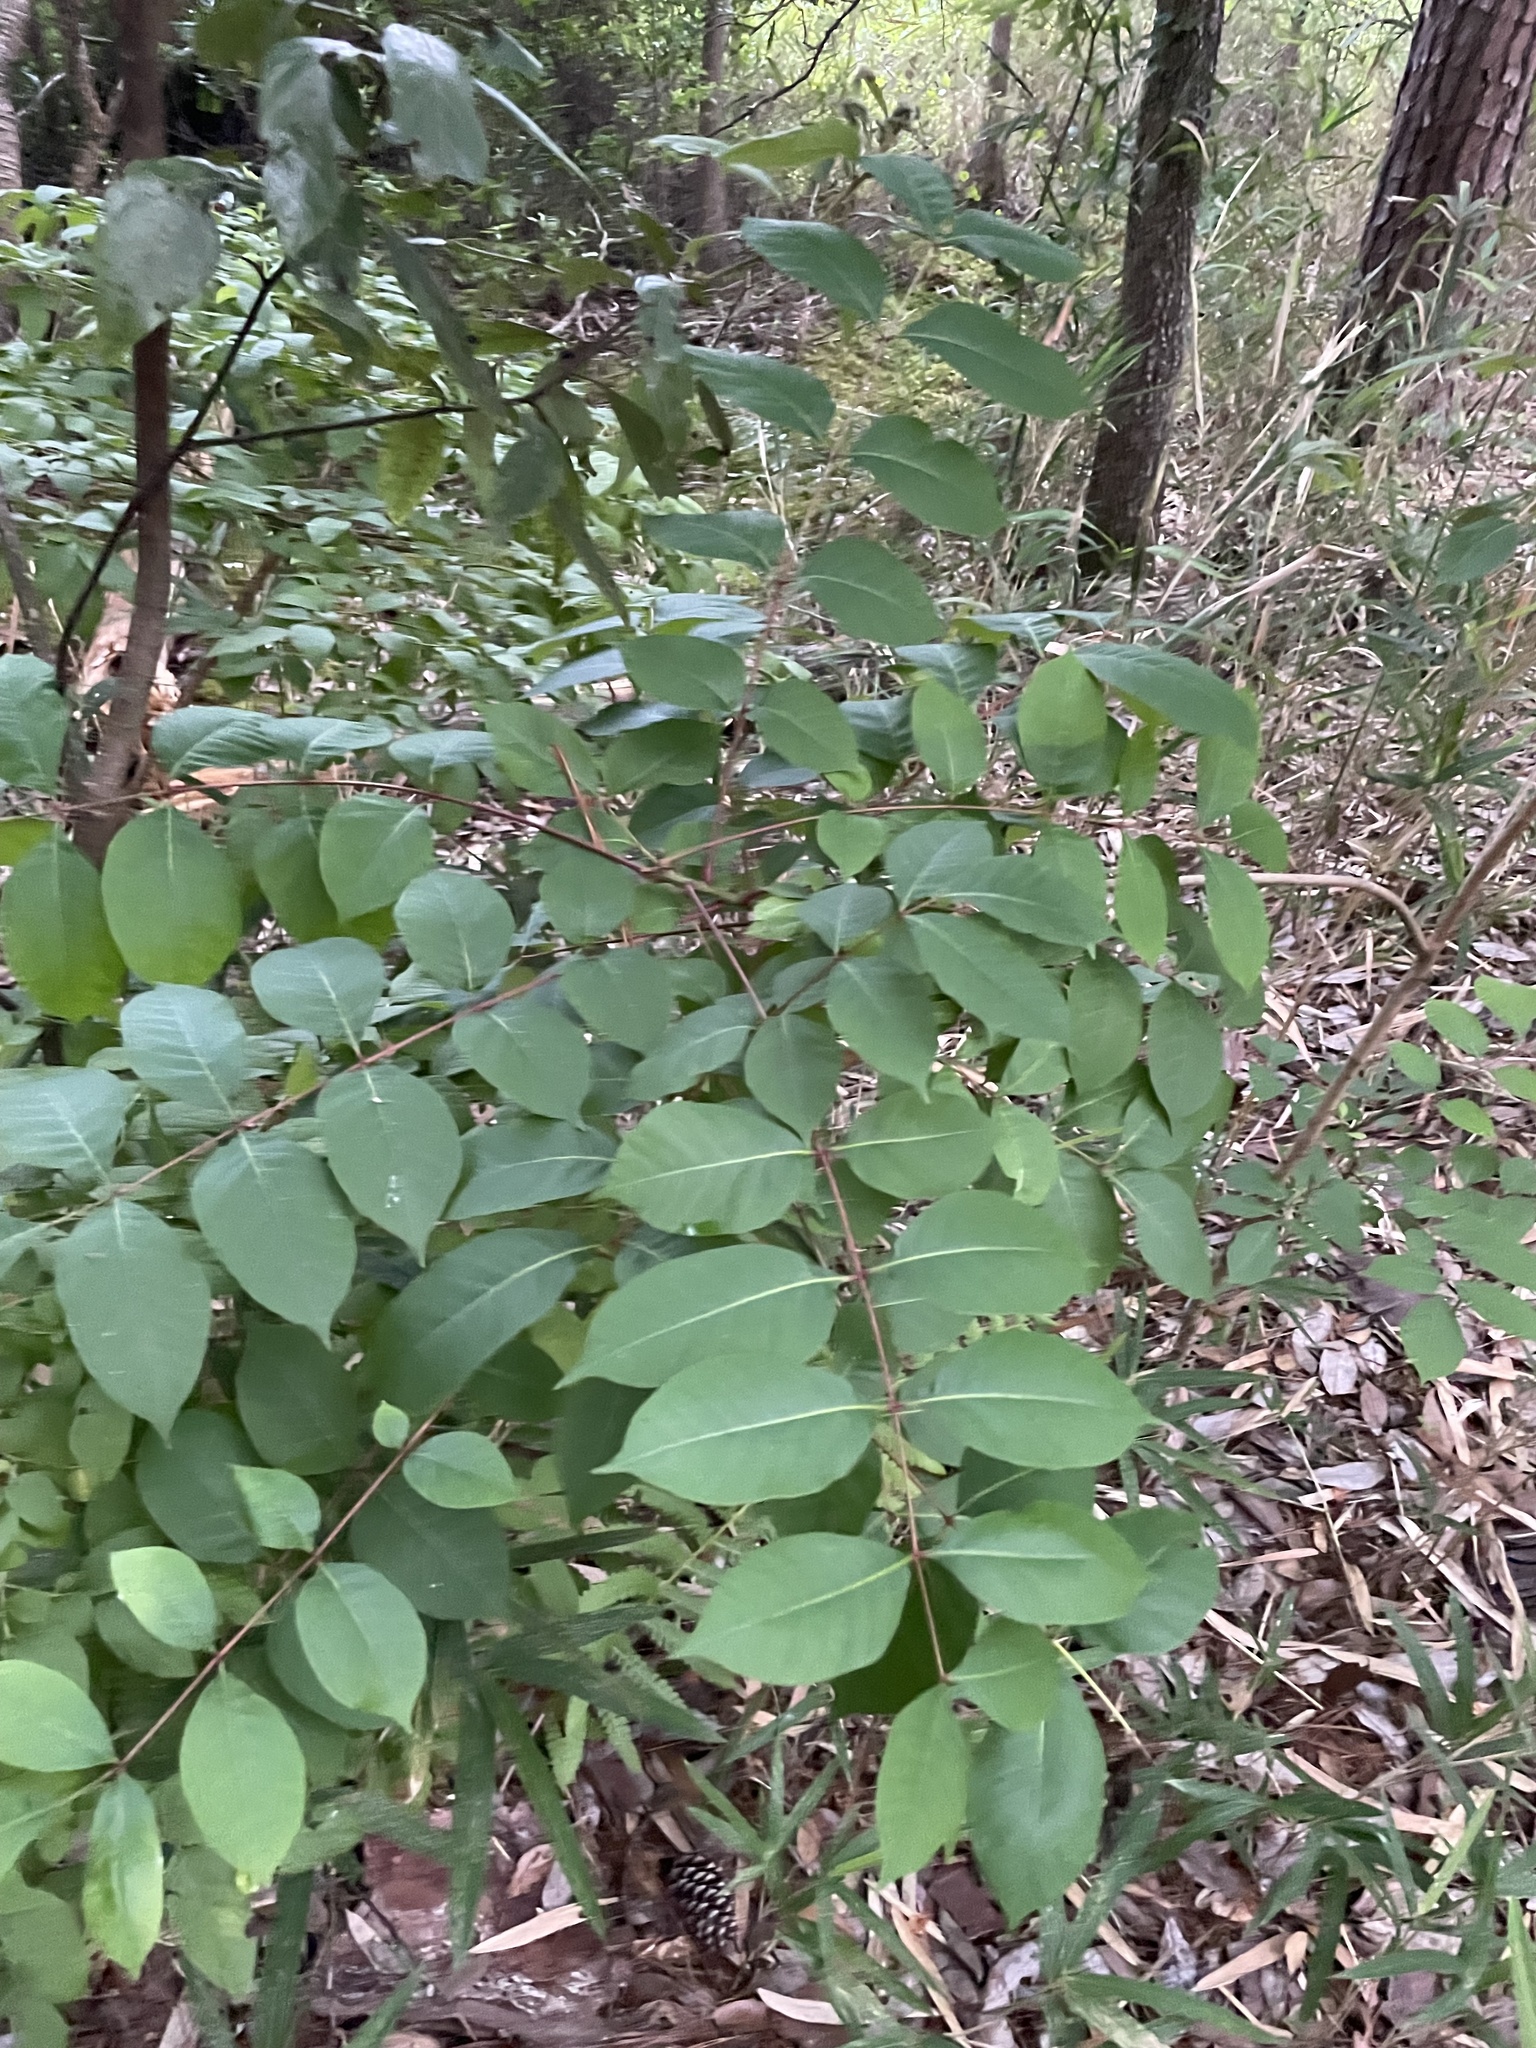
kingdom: Plantae
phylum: Tracheophyta
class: Magnoliopsida
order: Sapindales
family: Anacardiaceae
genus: Toxicodendron
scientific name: Toxicodendron vernix
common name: Poison sumac
